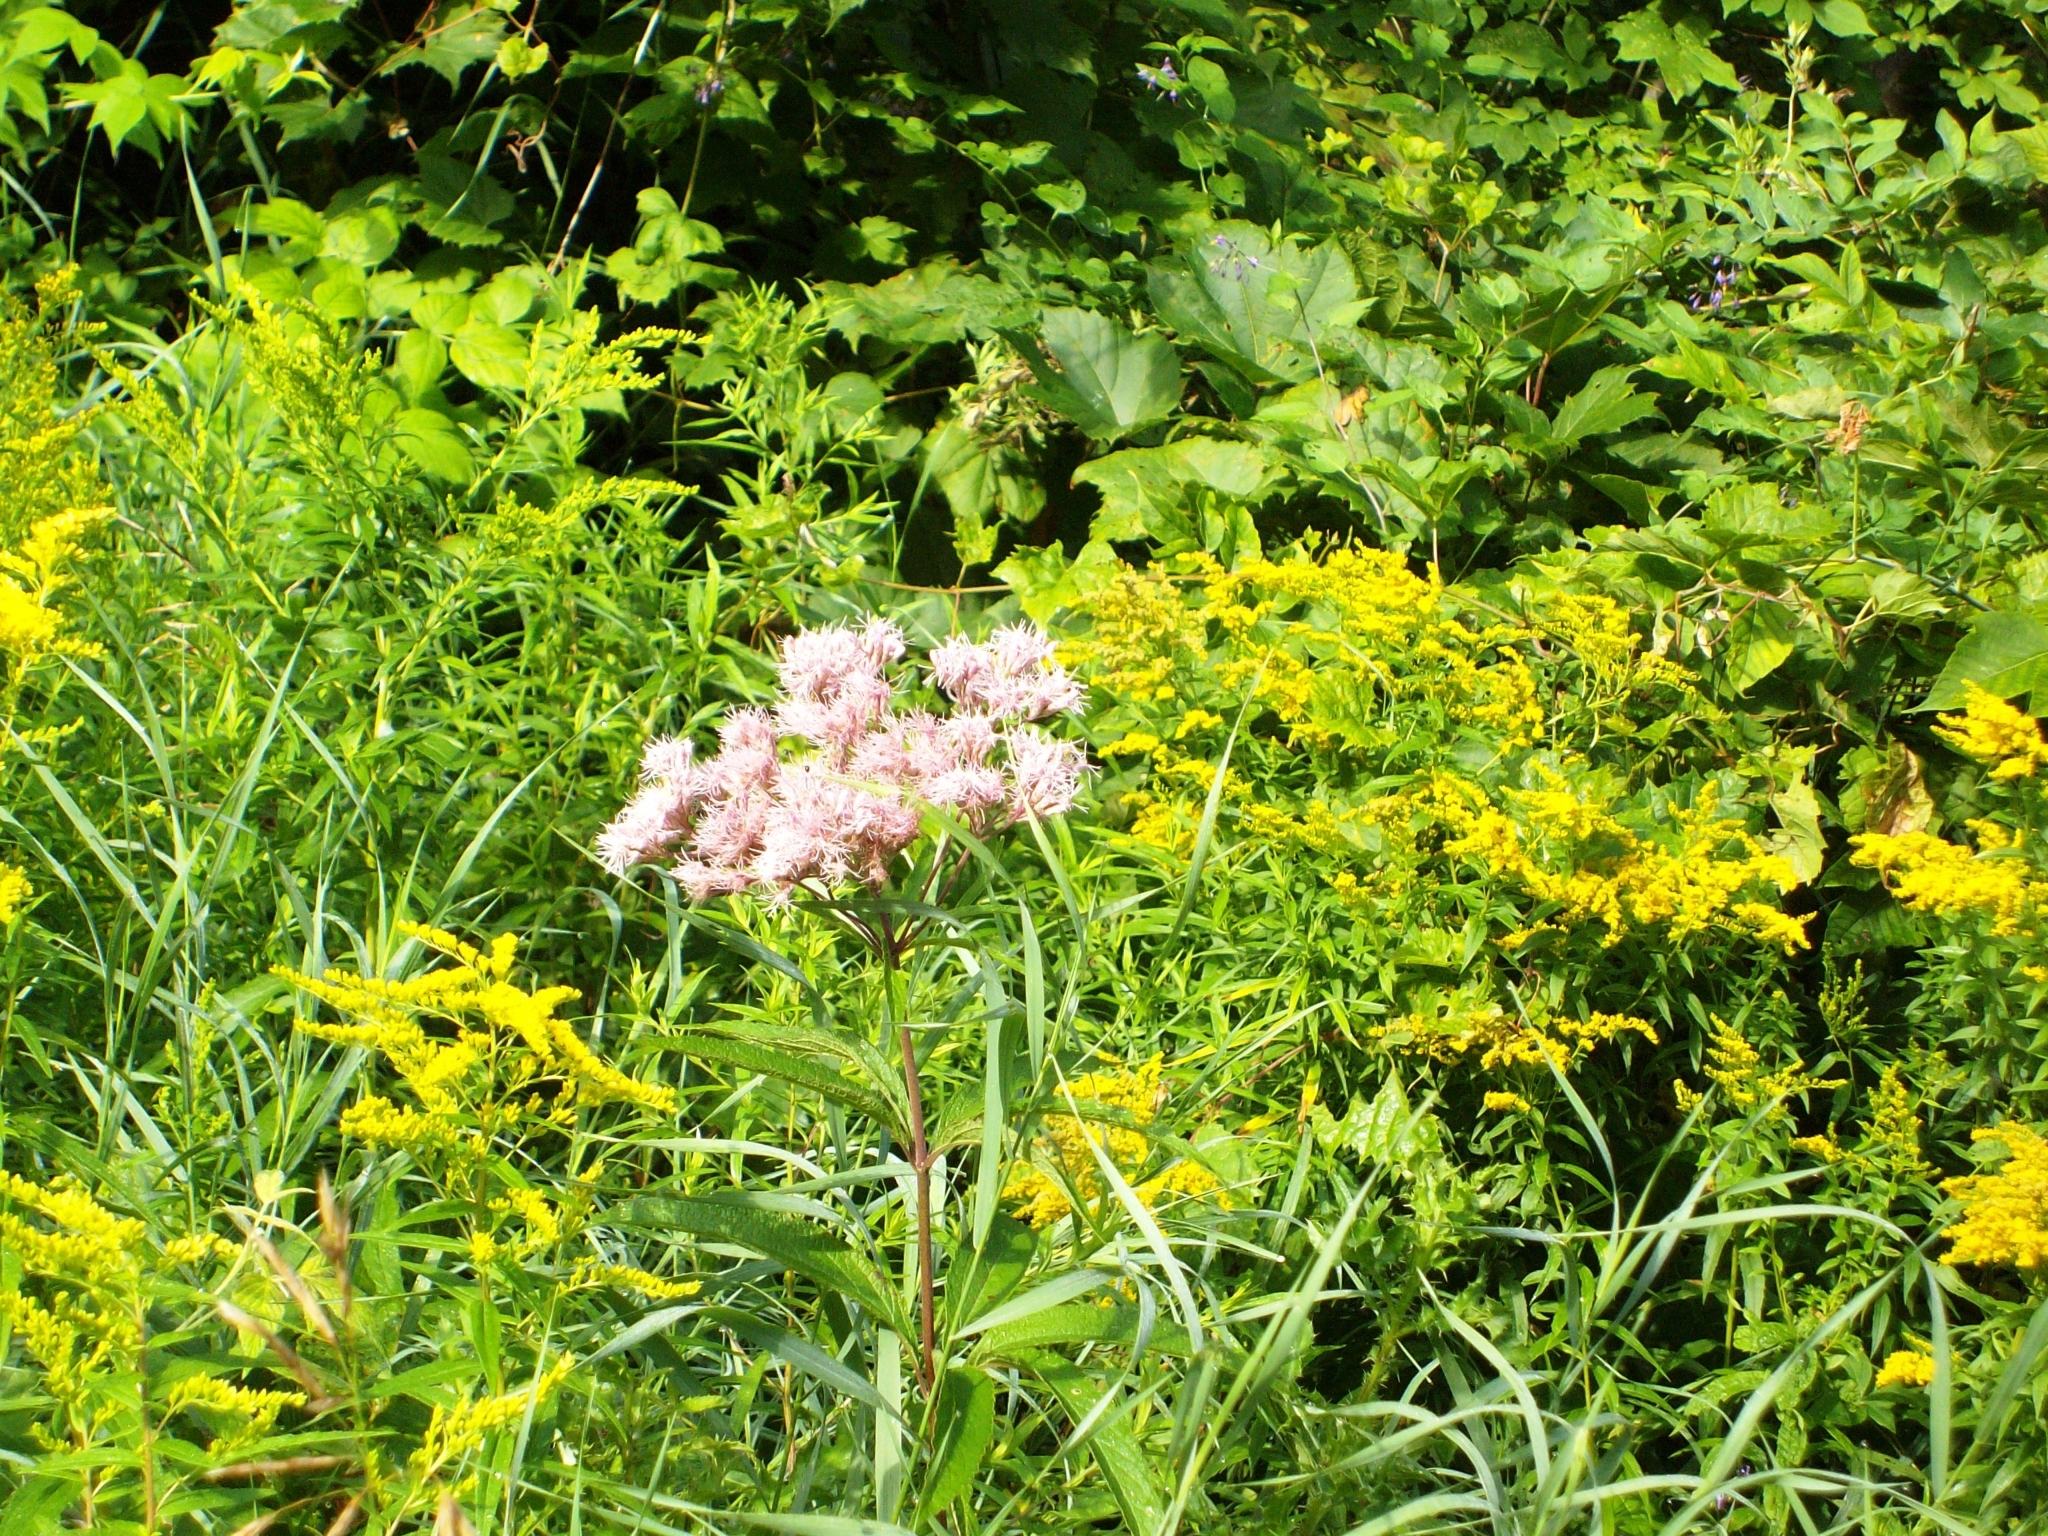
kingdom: Plantae
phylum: Tracheophyta
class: Magnoliopsida
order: Asterales
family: Asteraceae
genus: Eutrochium
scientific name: Eutrochium maculatum
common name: Spotted joe pye weed
